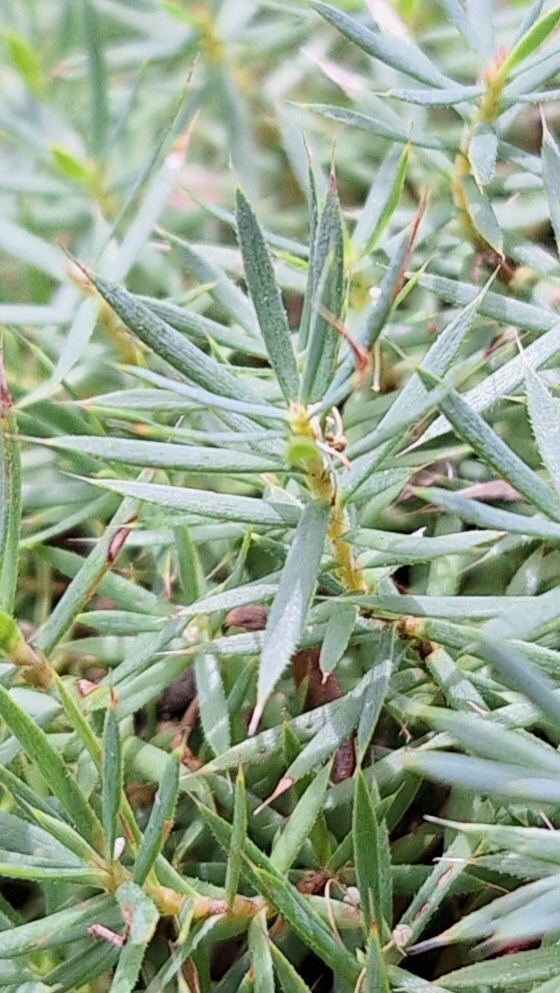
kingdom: Plantae
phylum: Tracheophyta
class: Magnoliopsida
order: Ericales
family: Ericaceae
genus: Styphelia
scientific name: Styphelia humifusa
